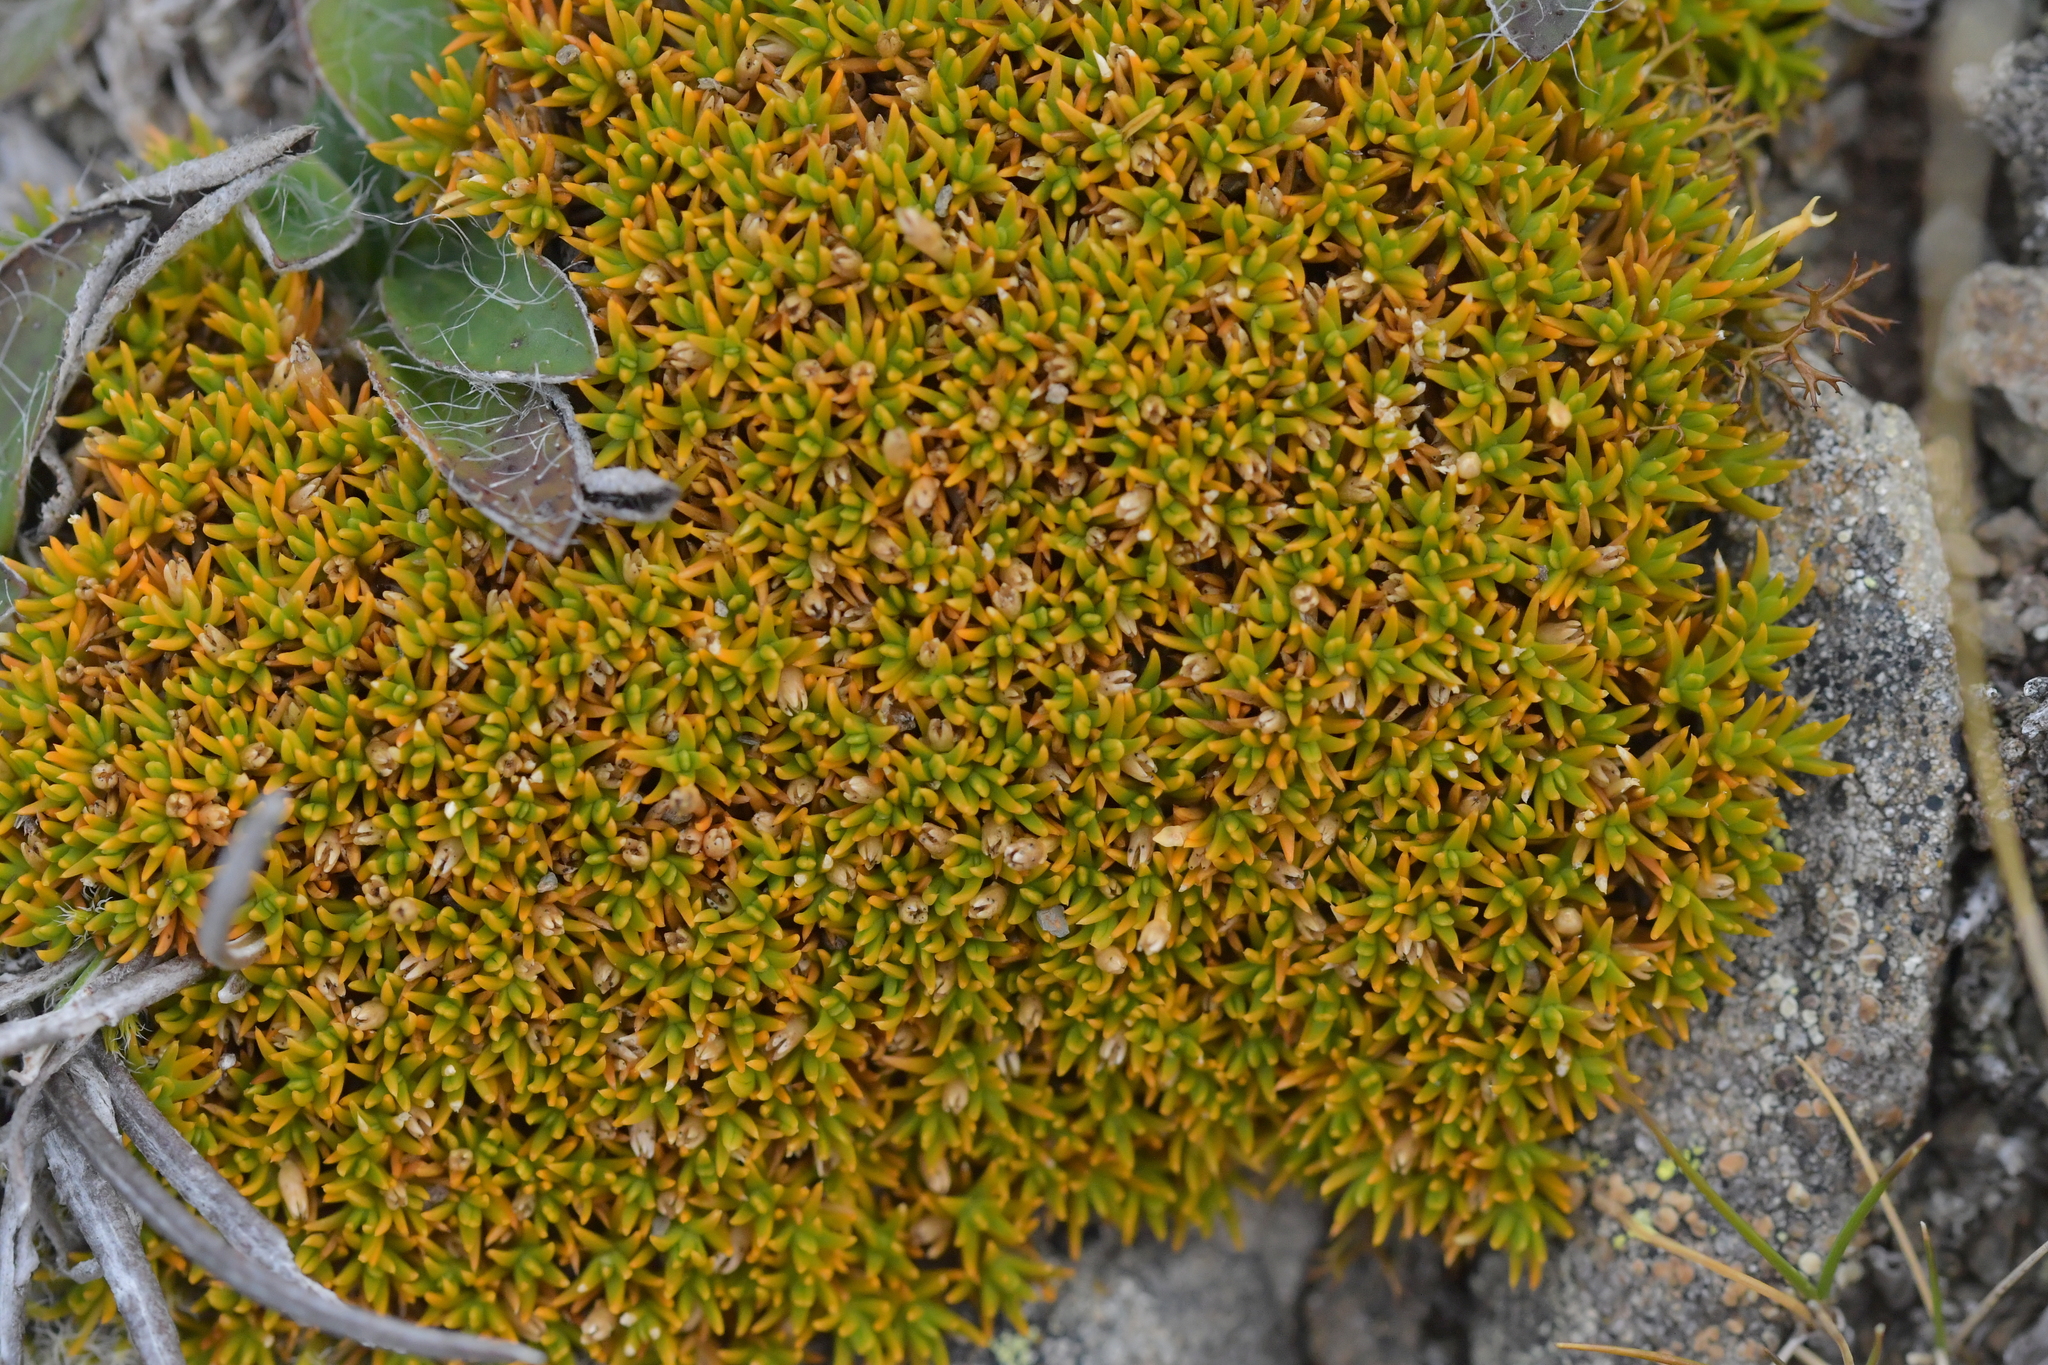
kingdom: Plantae
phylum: Tracheophyta
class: Magnoliopsida
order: Caryophyllales
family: Caryophyllaceae
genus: Scleranthus
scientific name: Scleranthus uniflorus
